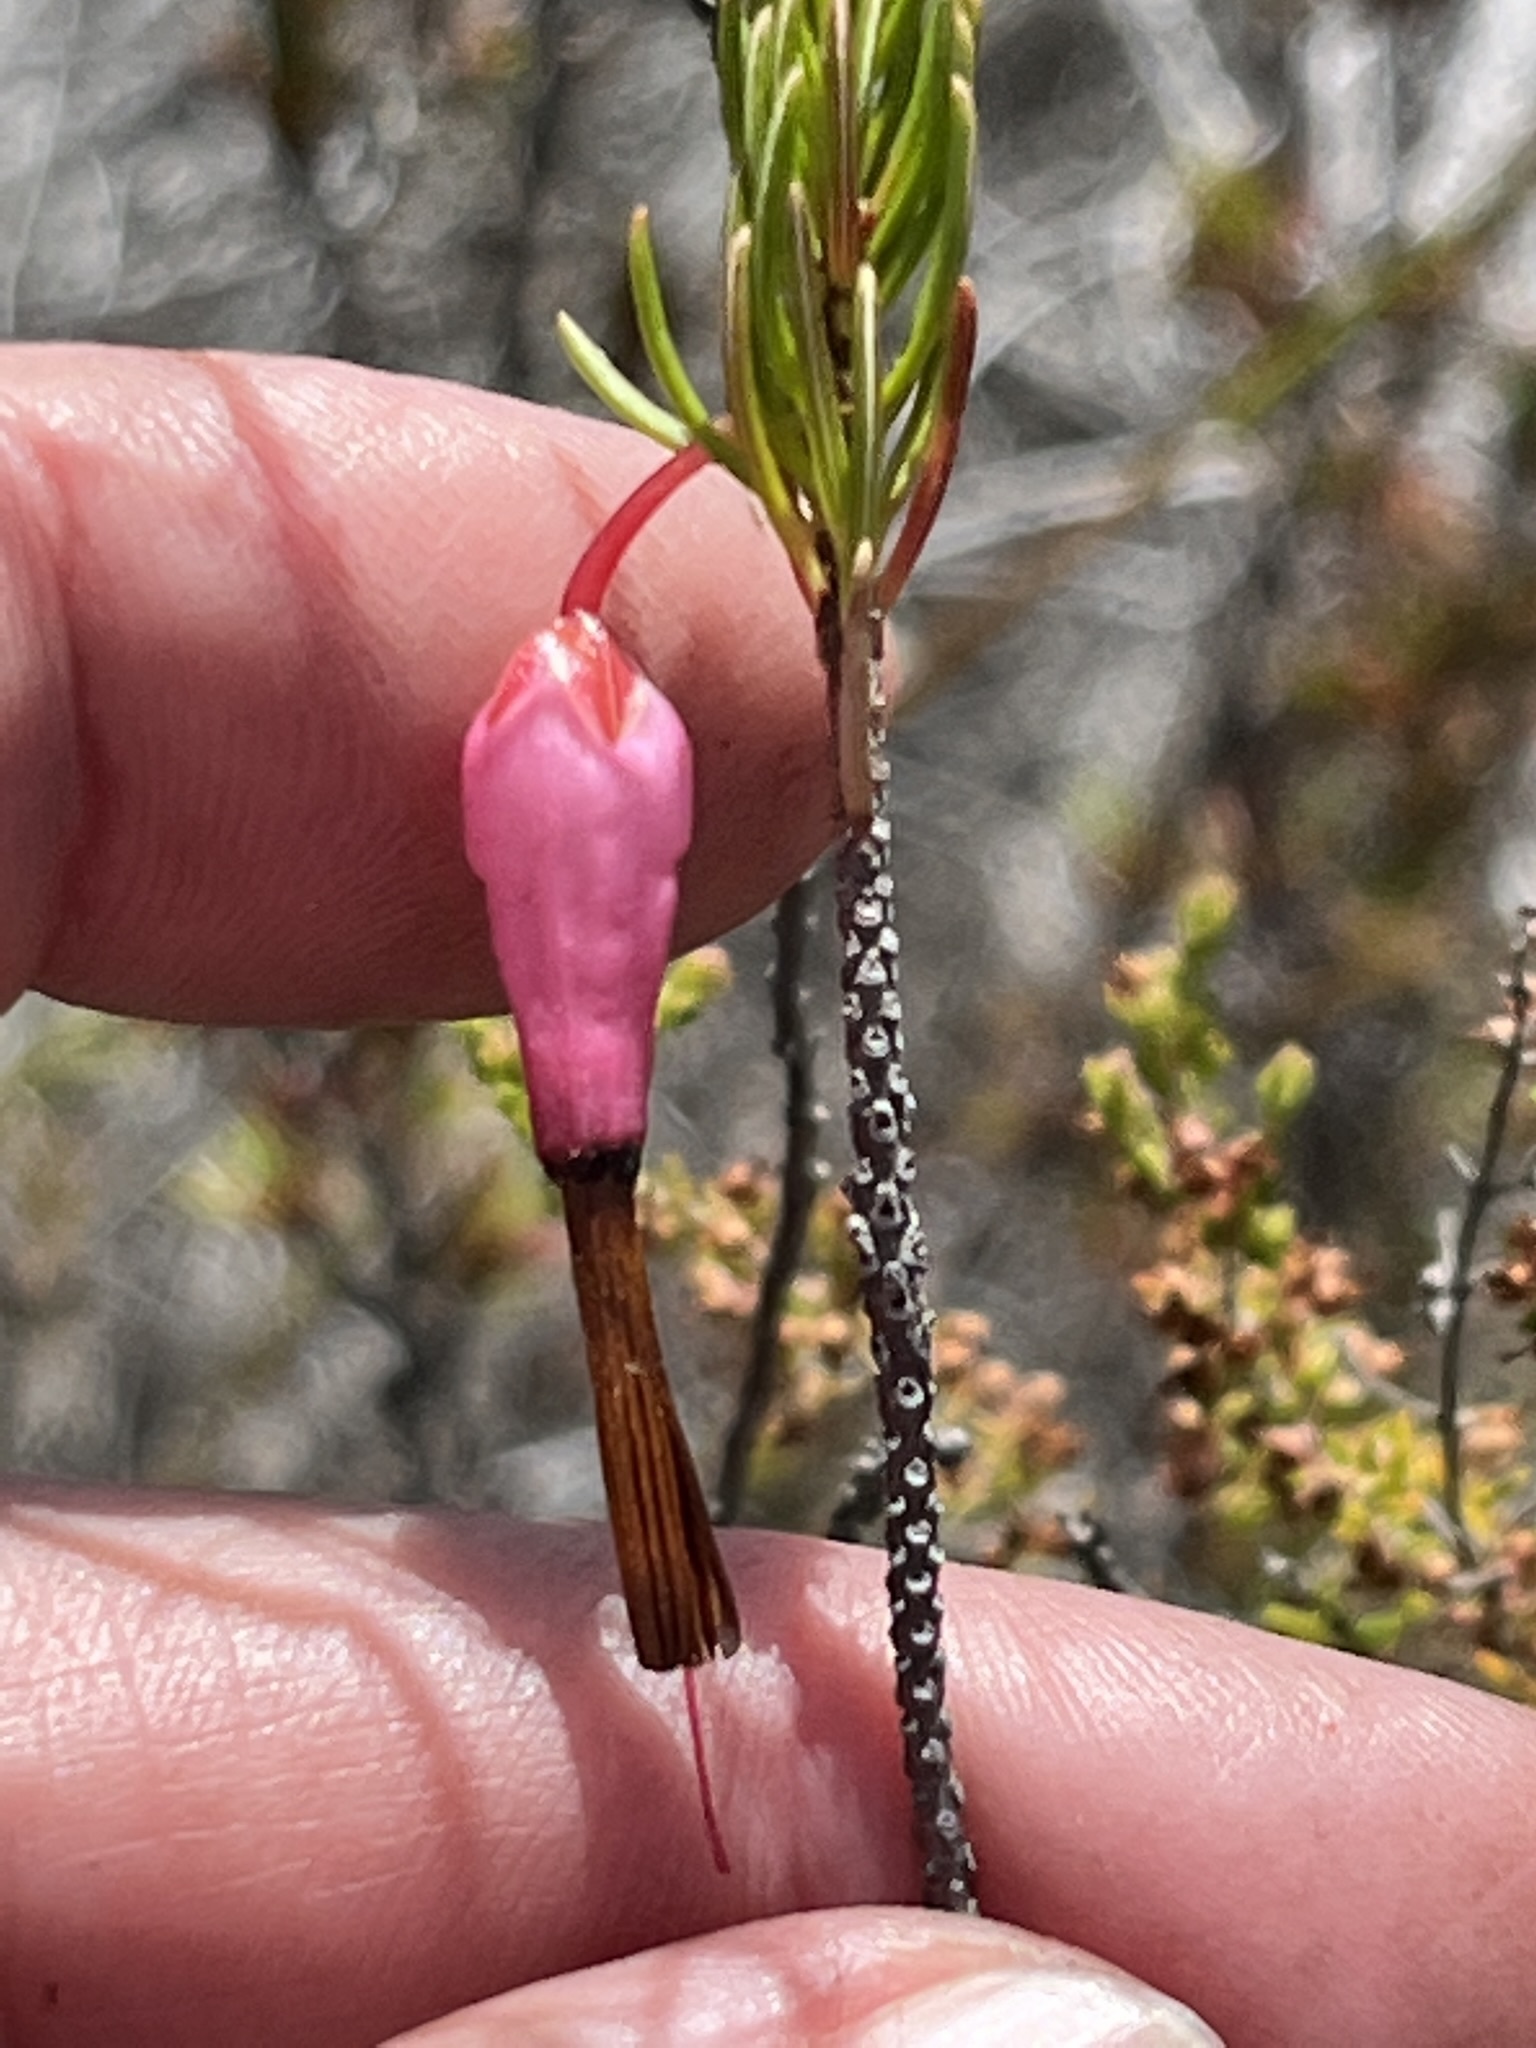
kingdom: Plantae
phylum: Tracheophyta
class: Magnoliopsida
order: Ericales
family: Ericaceae
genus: Erica
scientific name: Erica plukenetii
